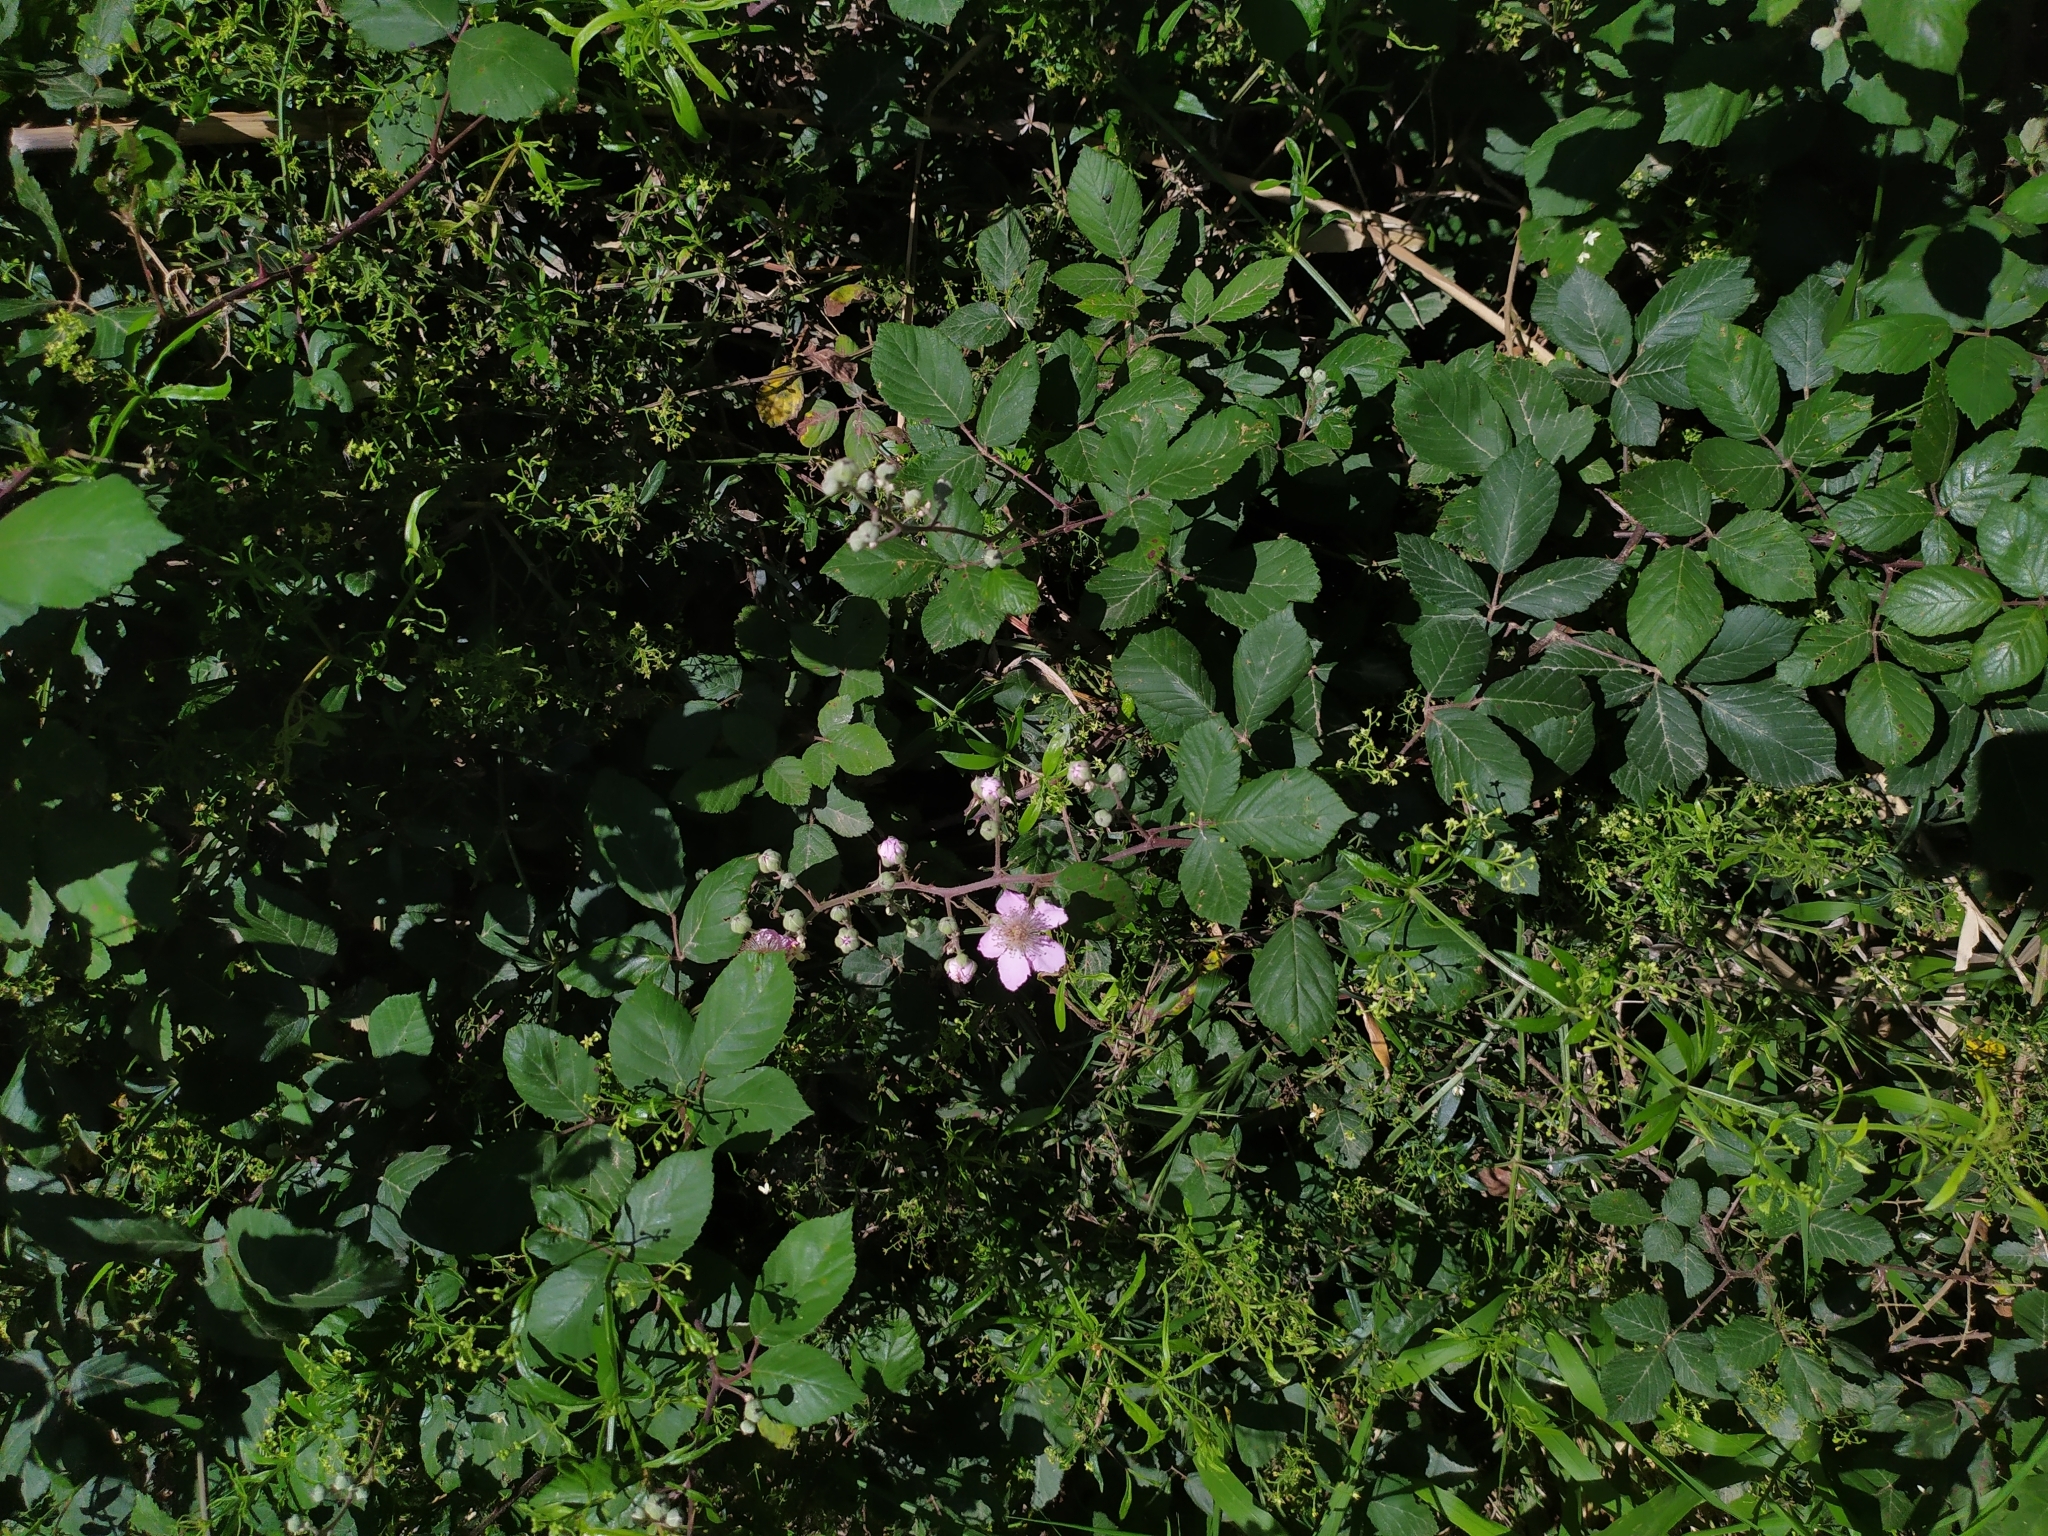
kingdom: Plantae
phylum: Tracheophyta
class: Magnoliopsida
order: Rosales
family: Rosaceae
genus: Rubus
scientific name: Rubus ulmifolius
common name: Elmleaf blackberry
